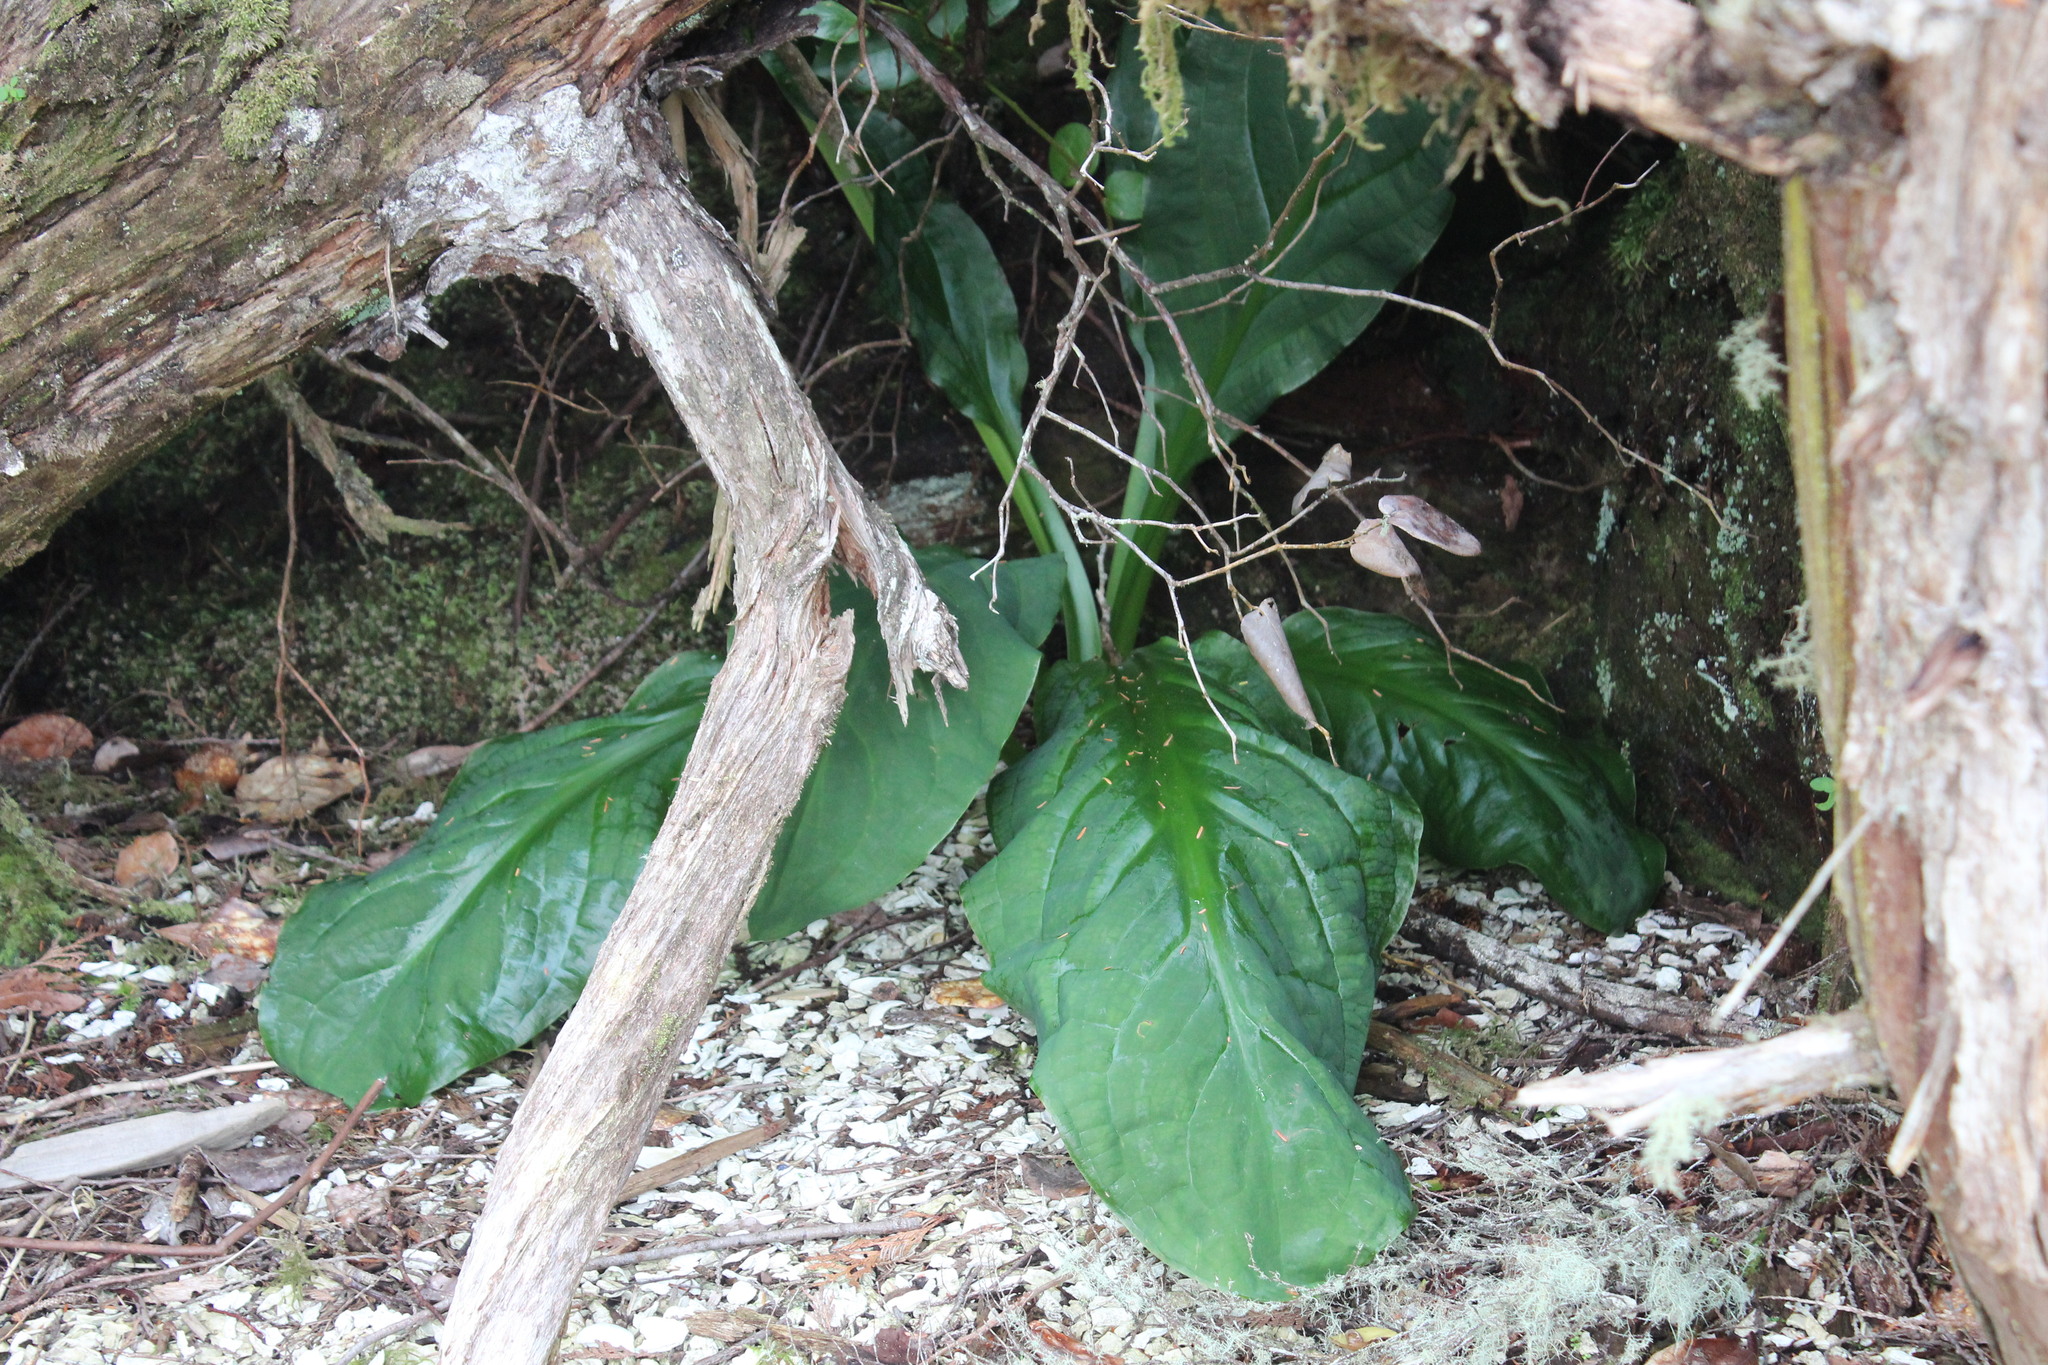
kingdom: Plantae
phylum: Tracheophyta
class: Liliopsida
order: Alismatales
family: Araceae
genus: Lysichiton
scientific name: Lysichiton americanus
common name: American skunk cabbage
